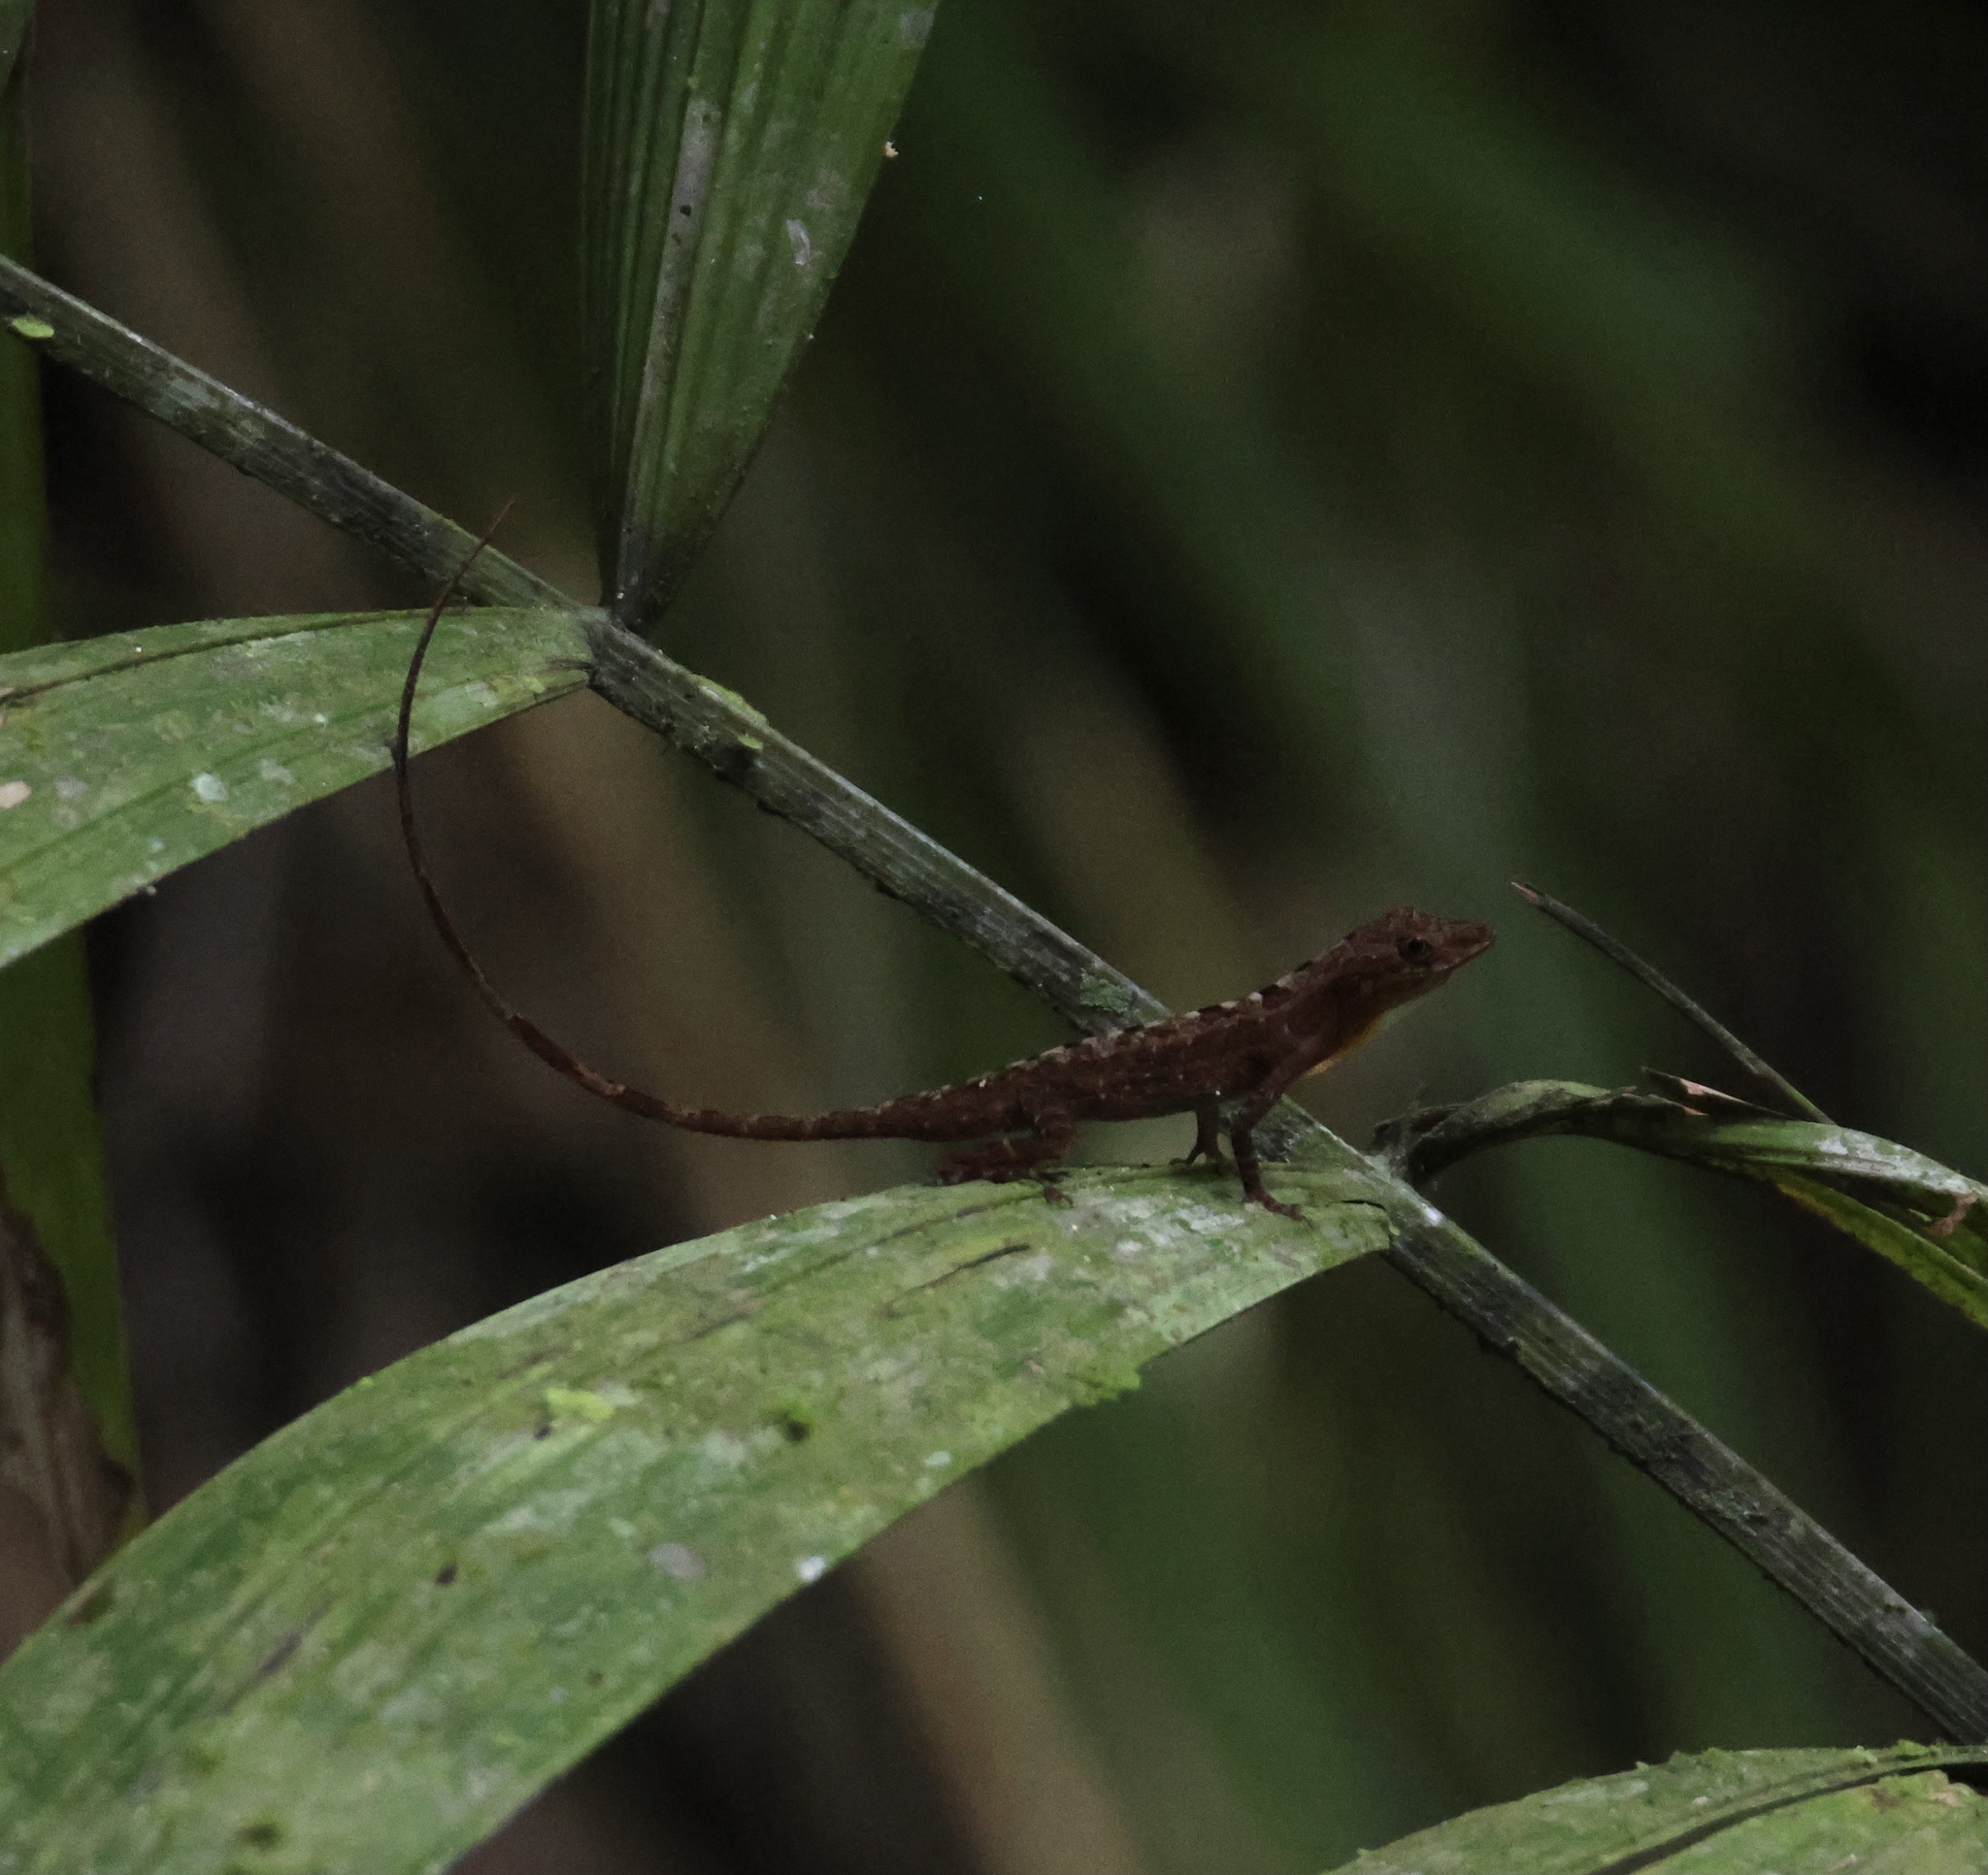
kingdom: Animalia
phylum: Chordata
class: Squamata
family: Dactyloidae
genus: Anolis
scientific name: Anolis apletophallus
